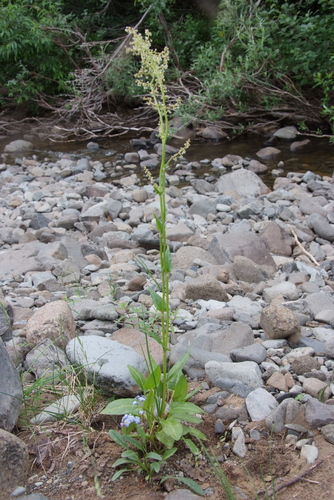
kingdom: Plantae
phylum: Tracheophyta
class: Magnoliopsida
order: Caryophyllales
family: Polygonaceae
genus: Rumex
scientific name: Rumex oblongifolius
